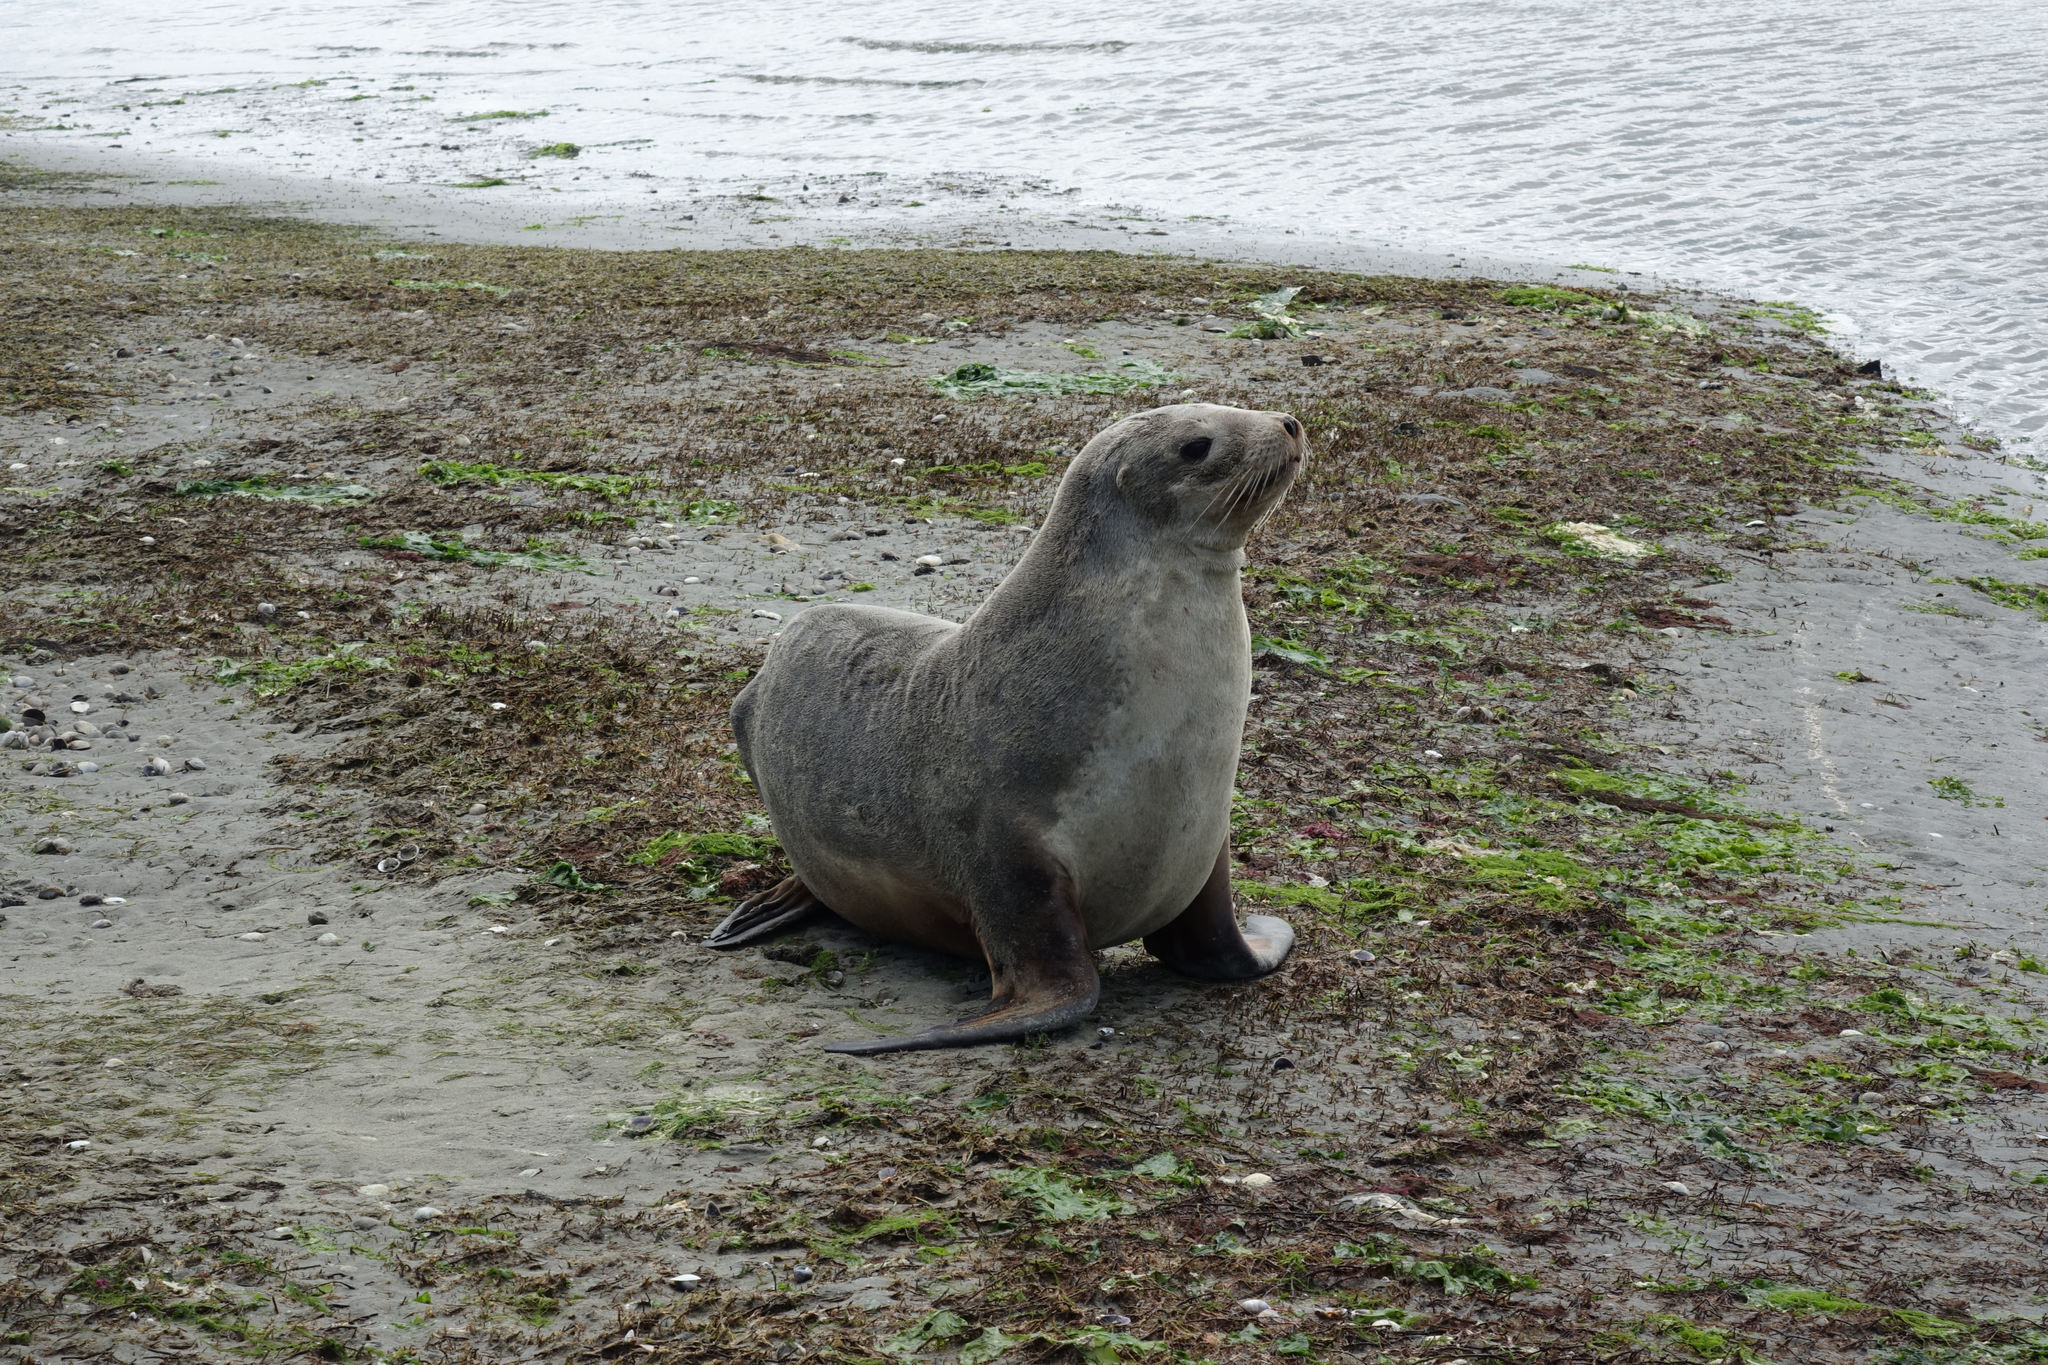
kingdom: Animalia
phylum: Chordata
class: Mammalia
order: Carnivora
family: Otariidae
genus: Phocarctos
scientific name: Phocarctos hookeri
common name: New zealand sea lion
